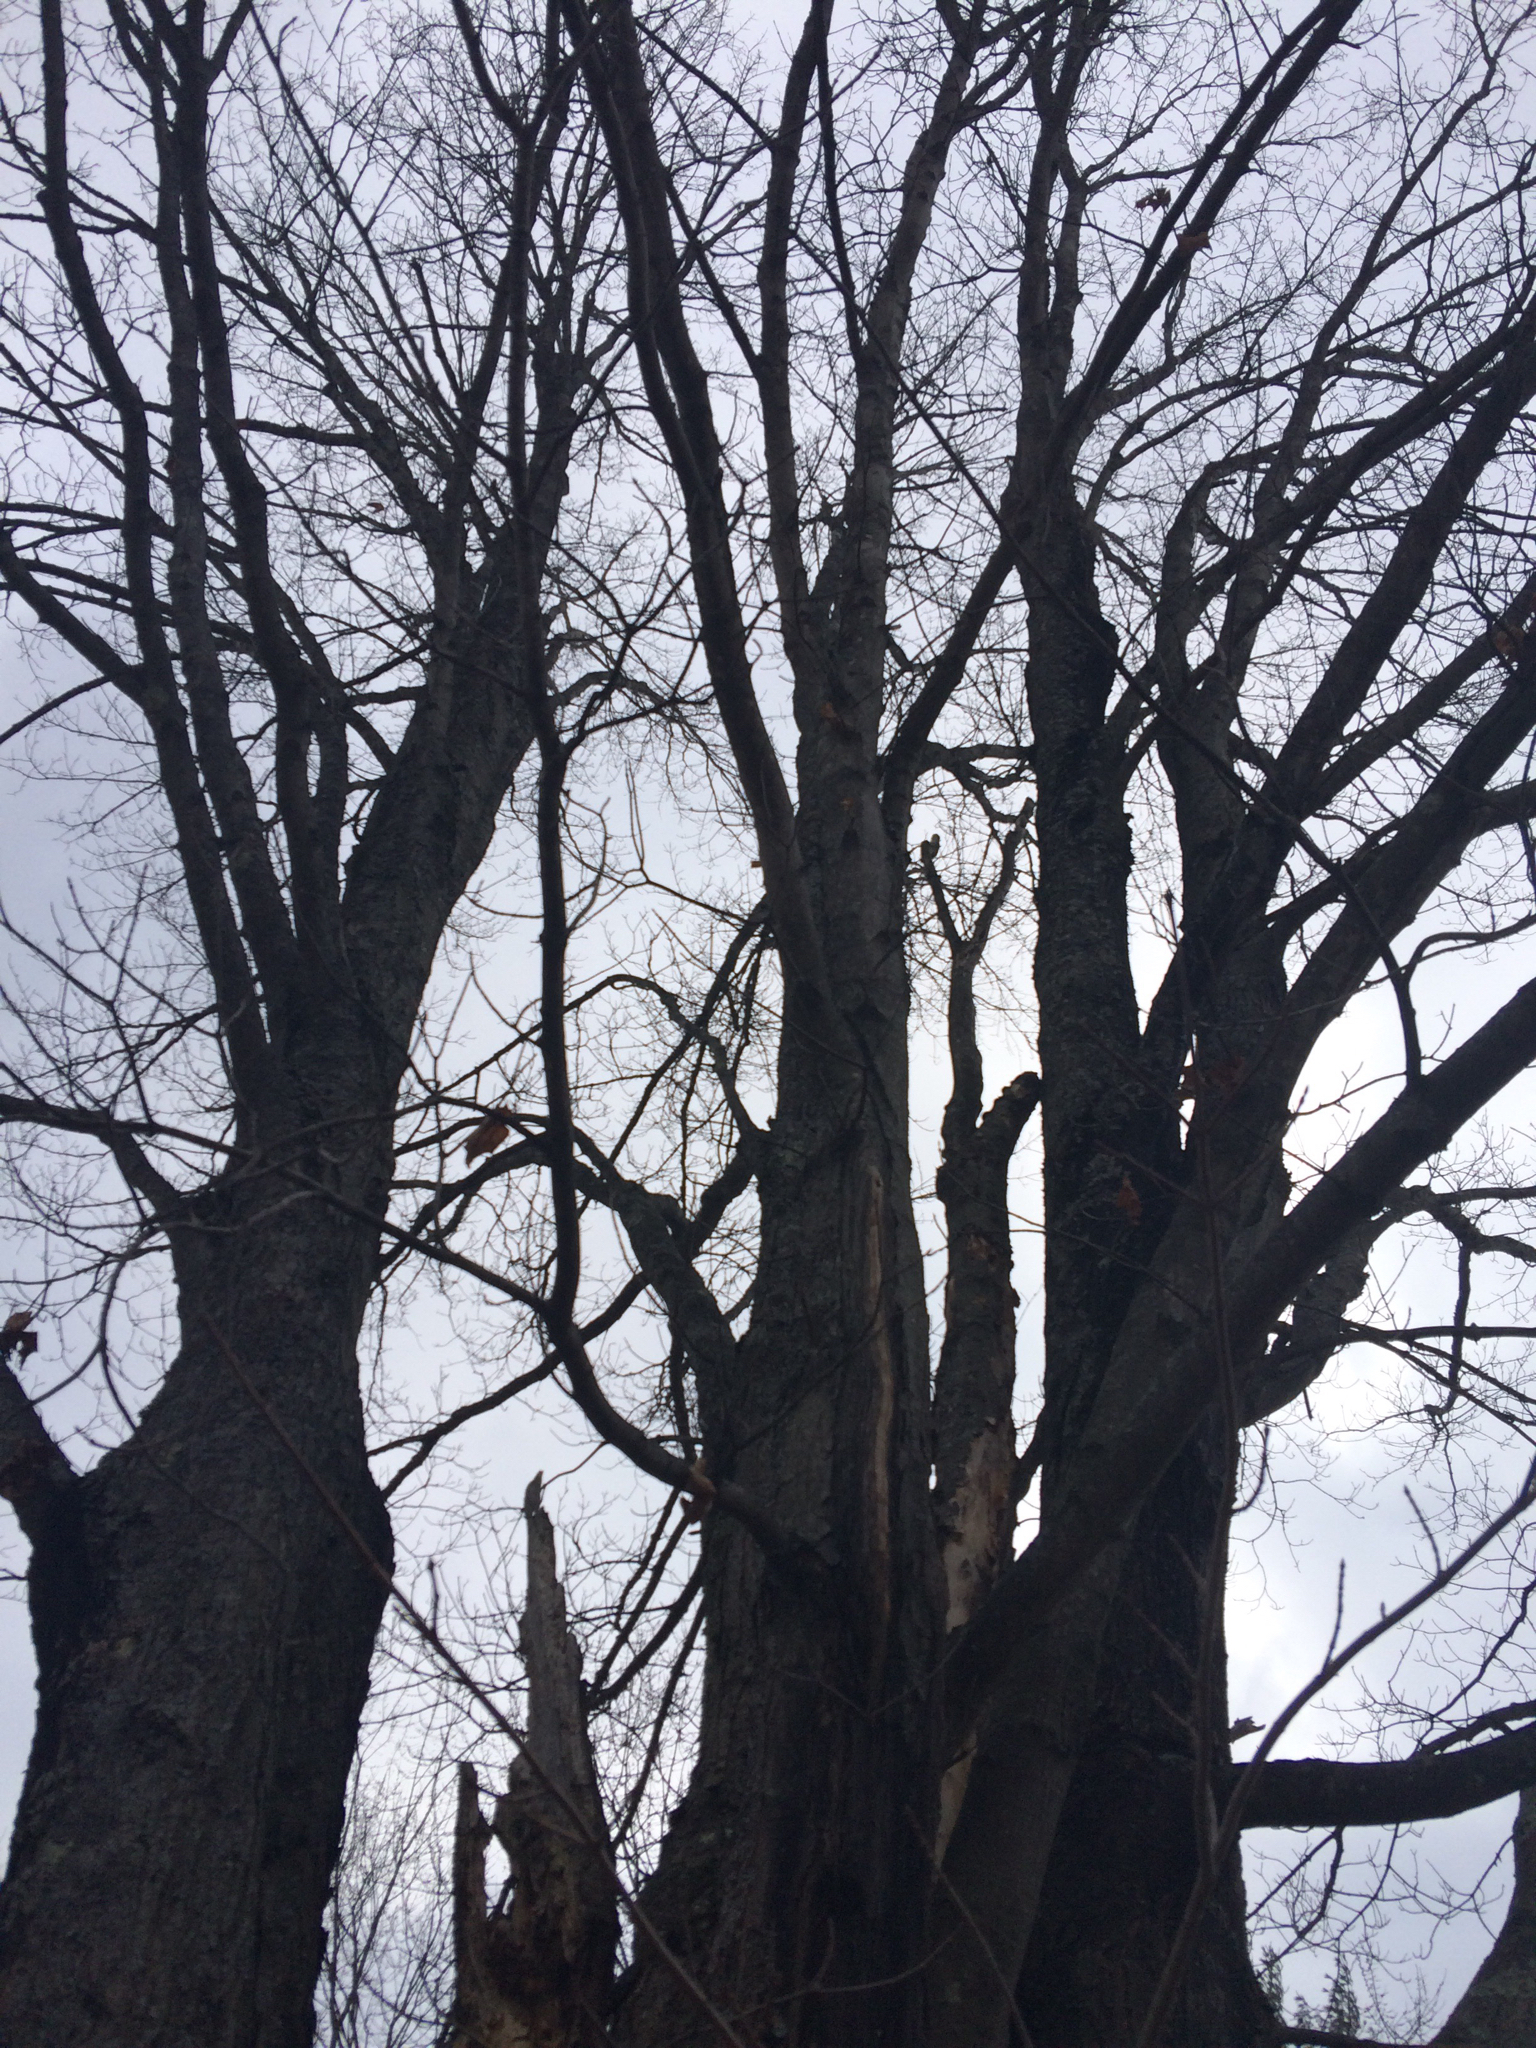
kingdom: Plantae
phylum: Tracheophyta
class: Magnoliopsida
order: Sapindales
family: Sapindaceae
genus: Acer
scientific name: Acer saccharum
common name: Sugar maple
